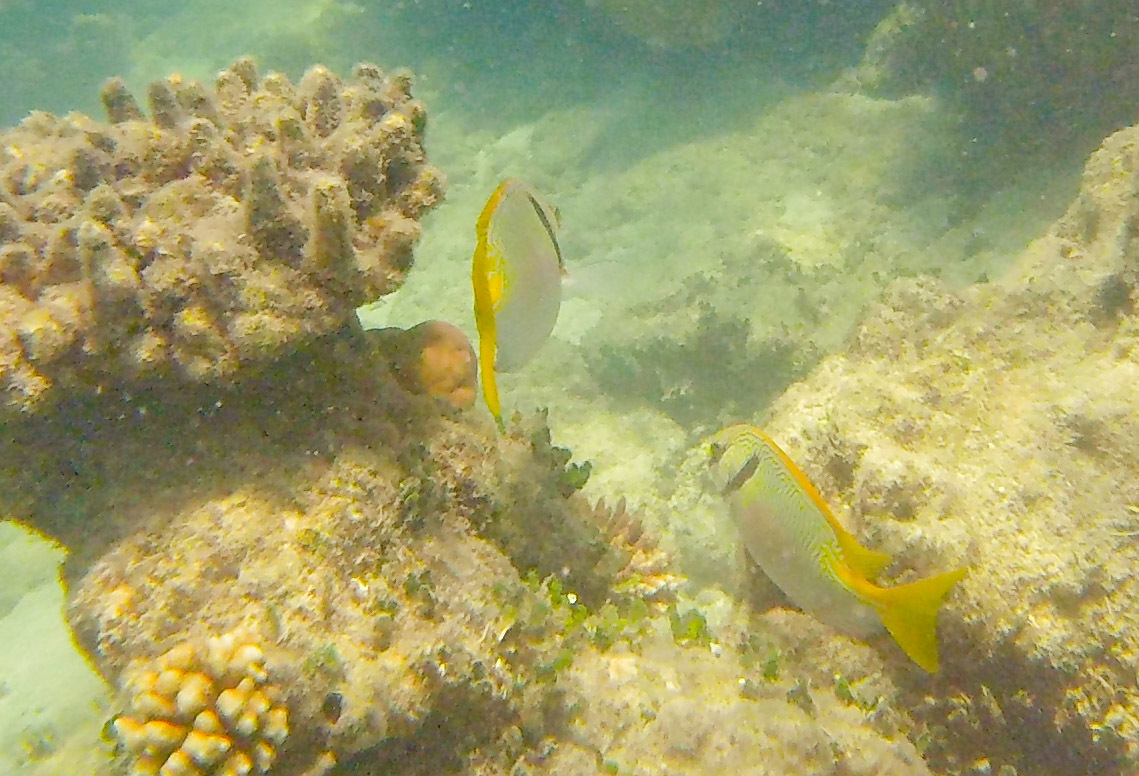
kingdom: Animalia
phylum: Chordata
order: Perciformes
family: Siganidae
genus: Siganus
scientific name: Siganus doliatus
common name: Barred spinefoot
